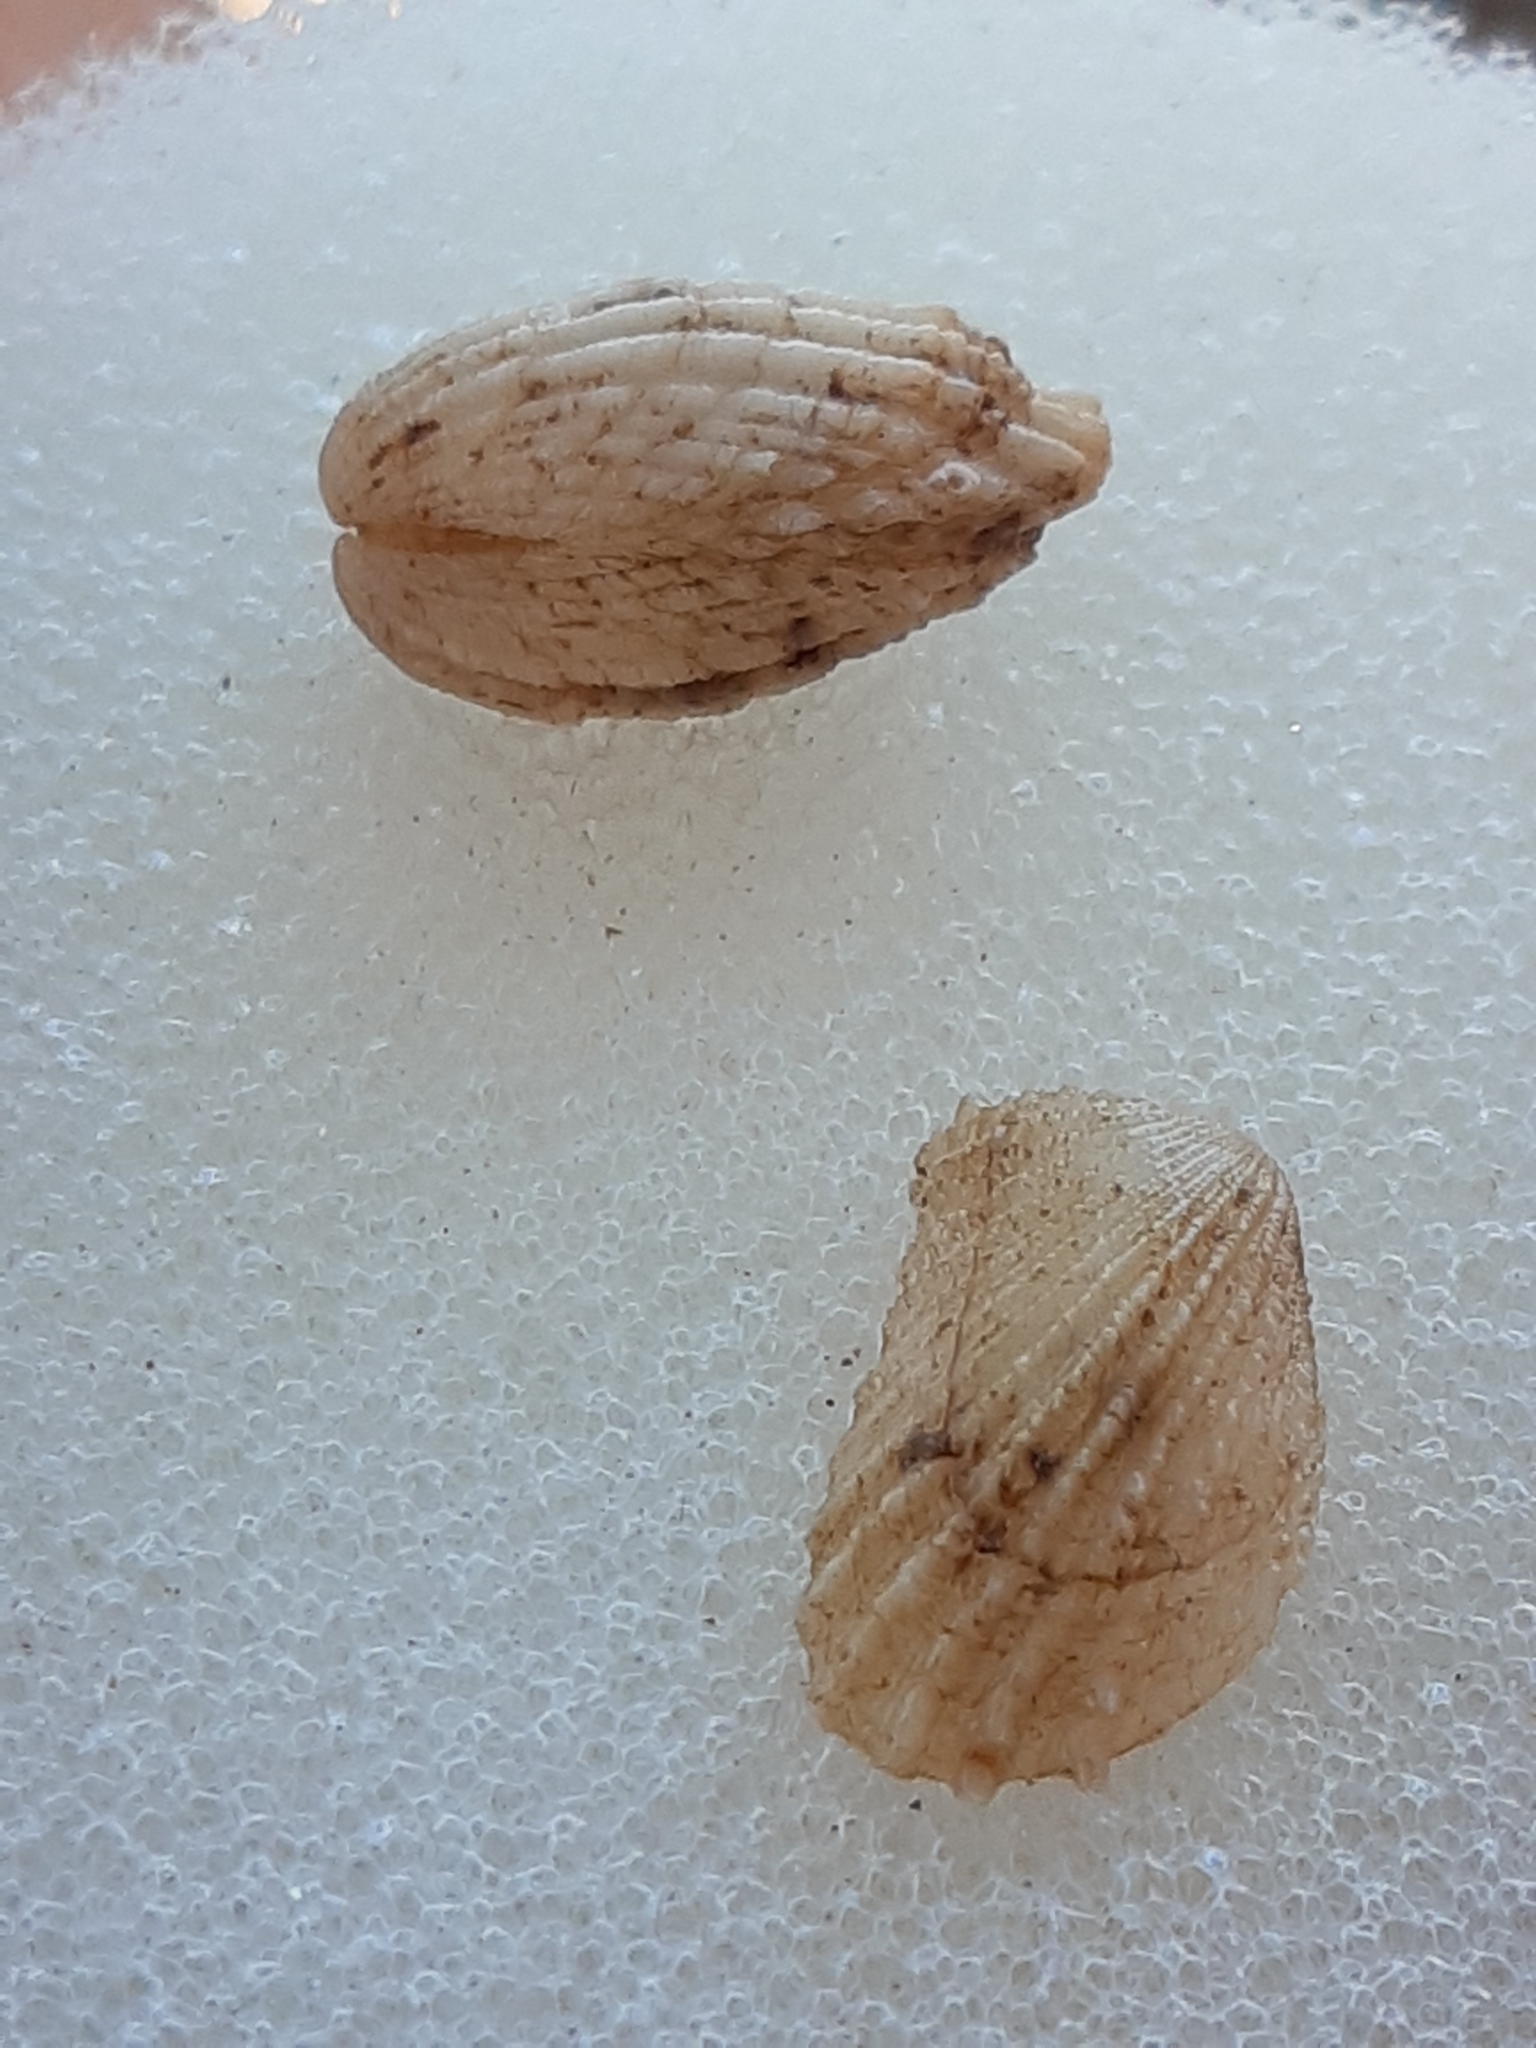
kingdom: Animalia
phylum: Mollusca
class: Bivalvia
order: Carditida
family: Carditidae
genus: Cardita
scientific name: Cardita calyculata
